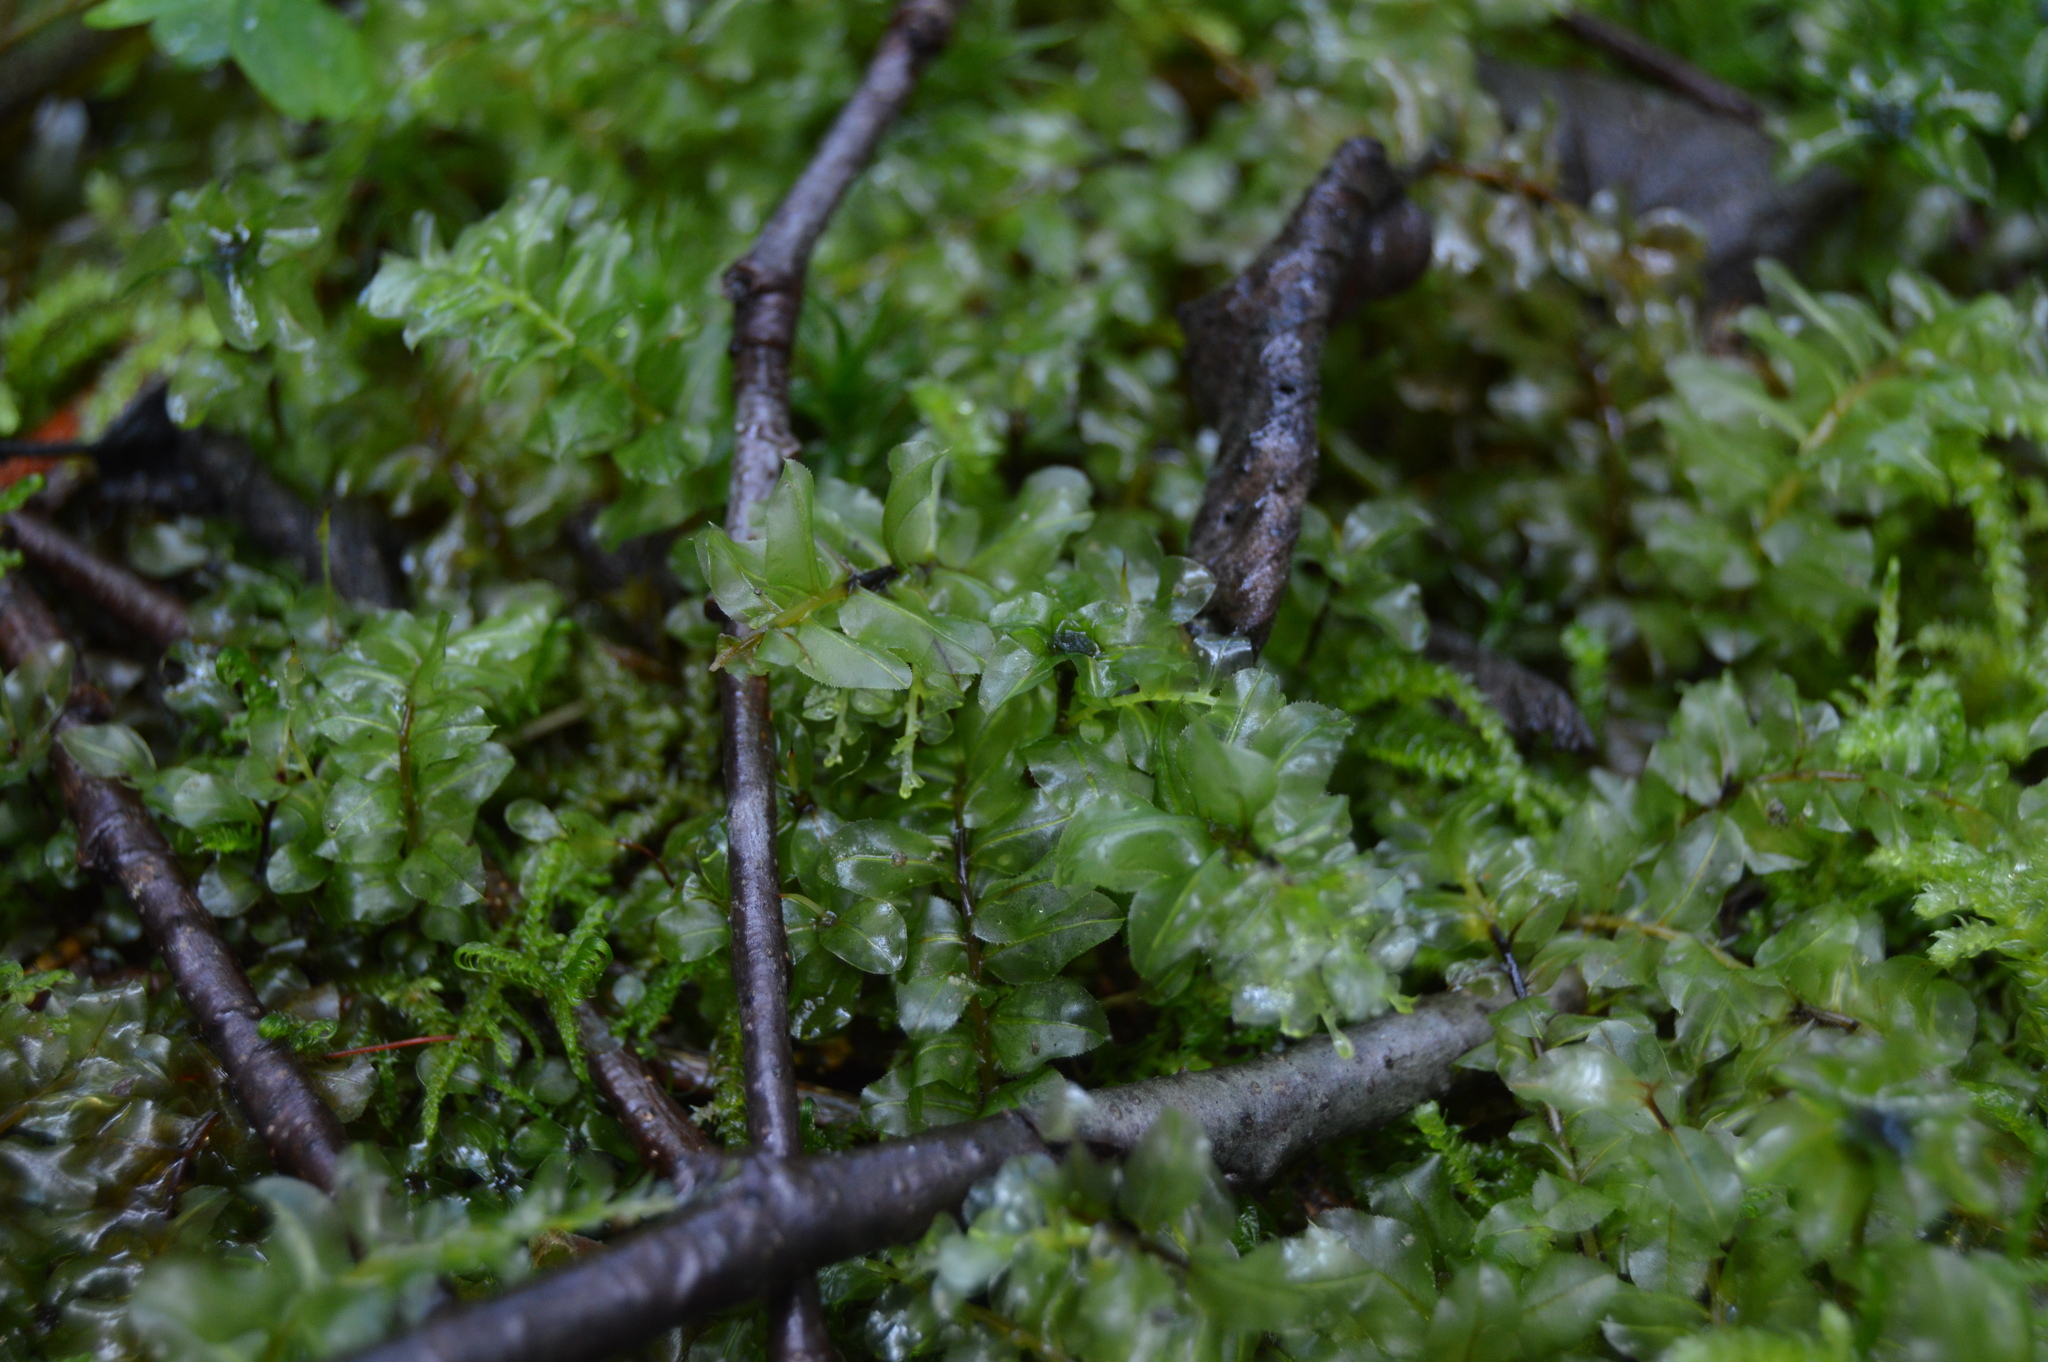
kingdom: Plantae
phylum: Bryophyta
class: Bryopsida
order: Bryales
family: Mniaceae
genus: Plagiomnium
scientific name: Plagiomnium affine
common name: Many-fruited thyme-moss
